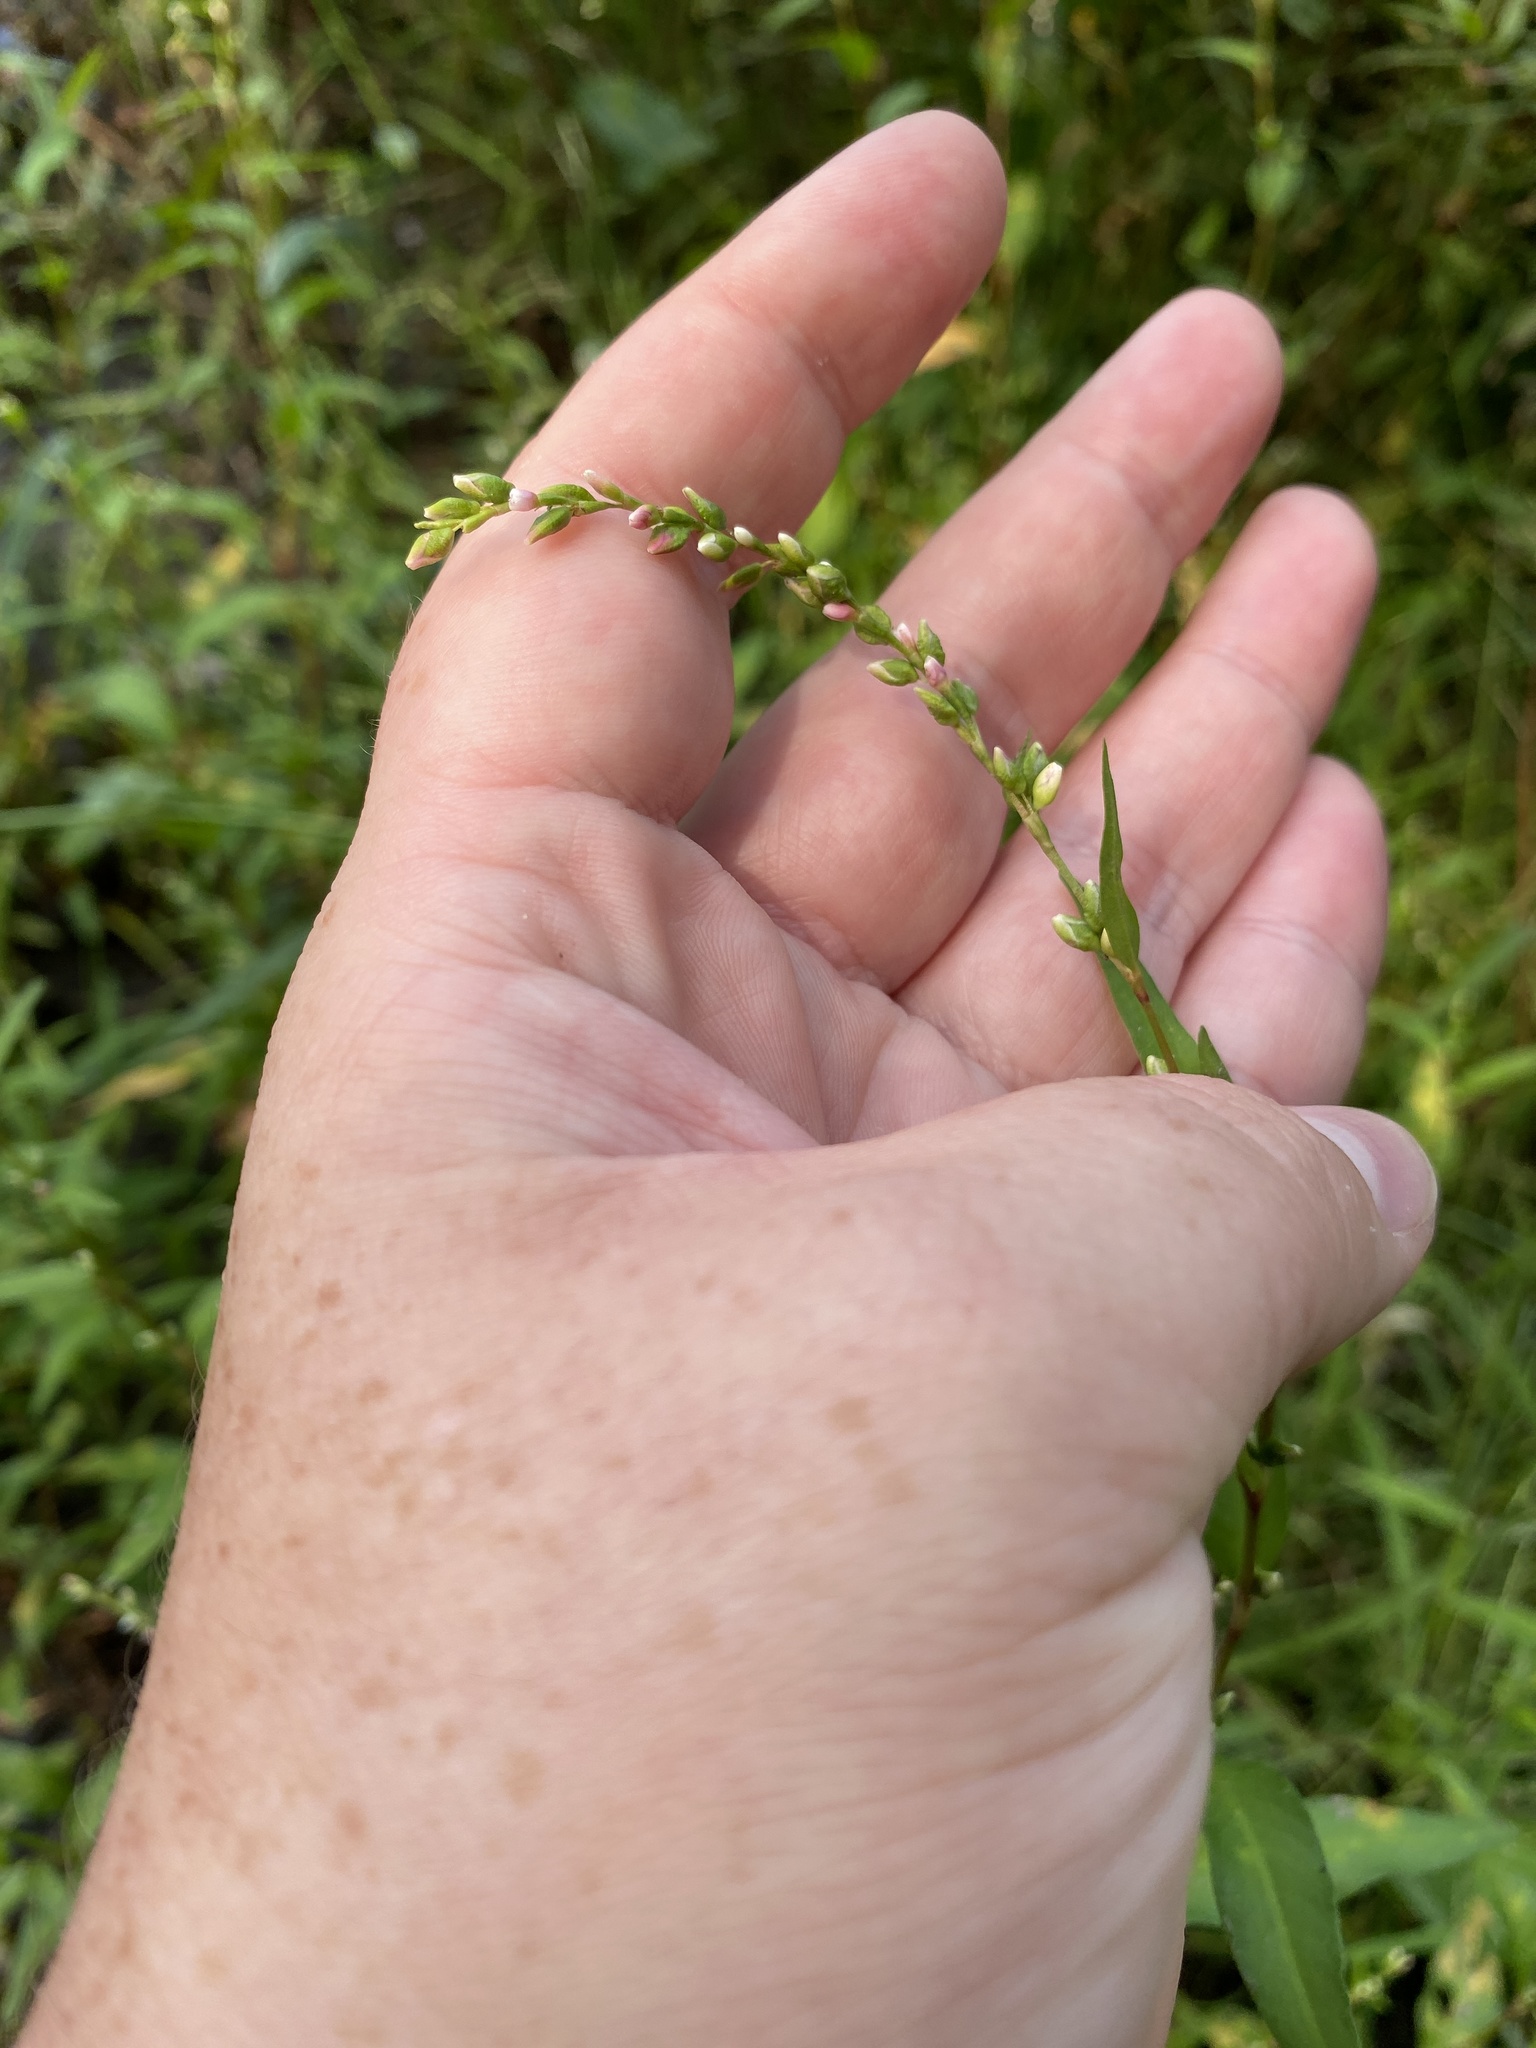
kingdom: Plantae
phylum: Tracheophyta
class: Magnoliopsida
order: Caryophyllales
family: Polygonaceae
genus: Persicaria
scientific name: Persicaria hydropiper
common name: Water-pepper
